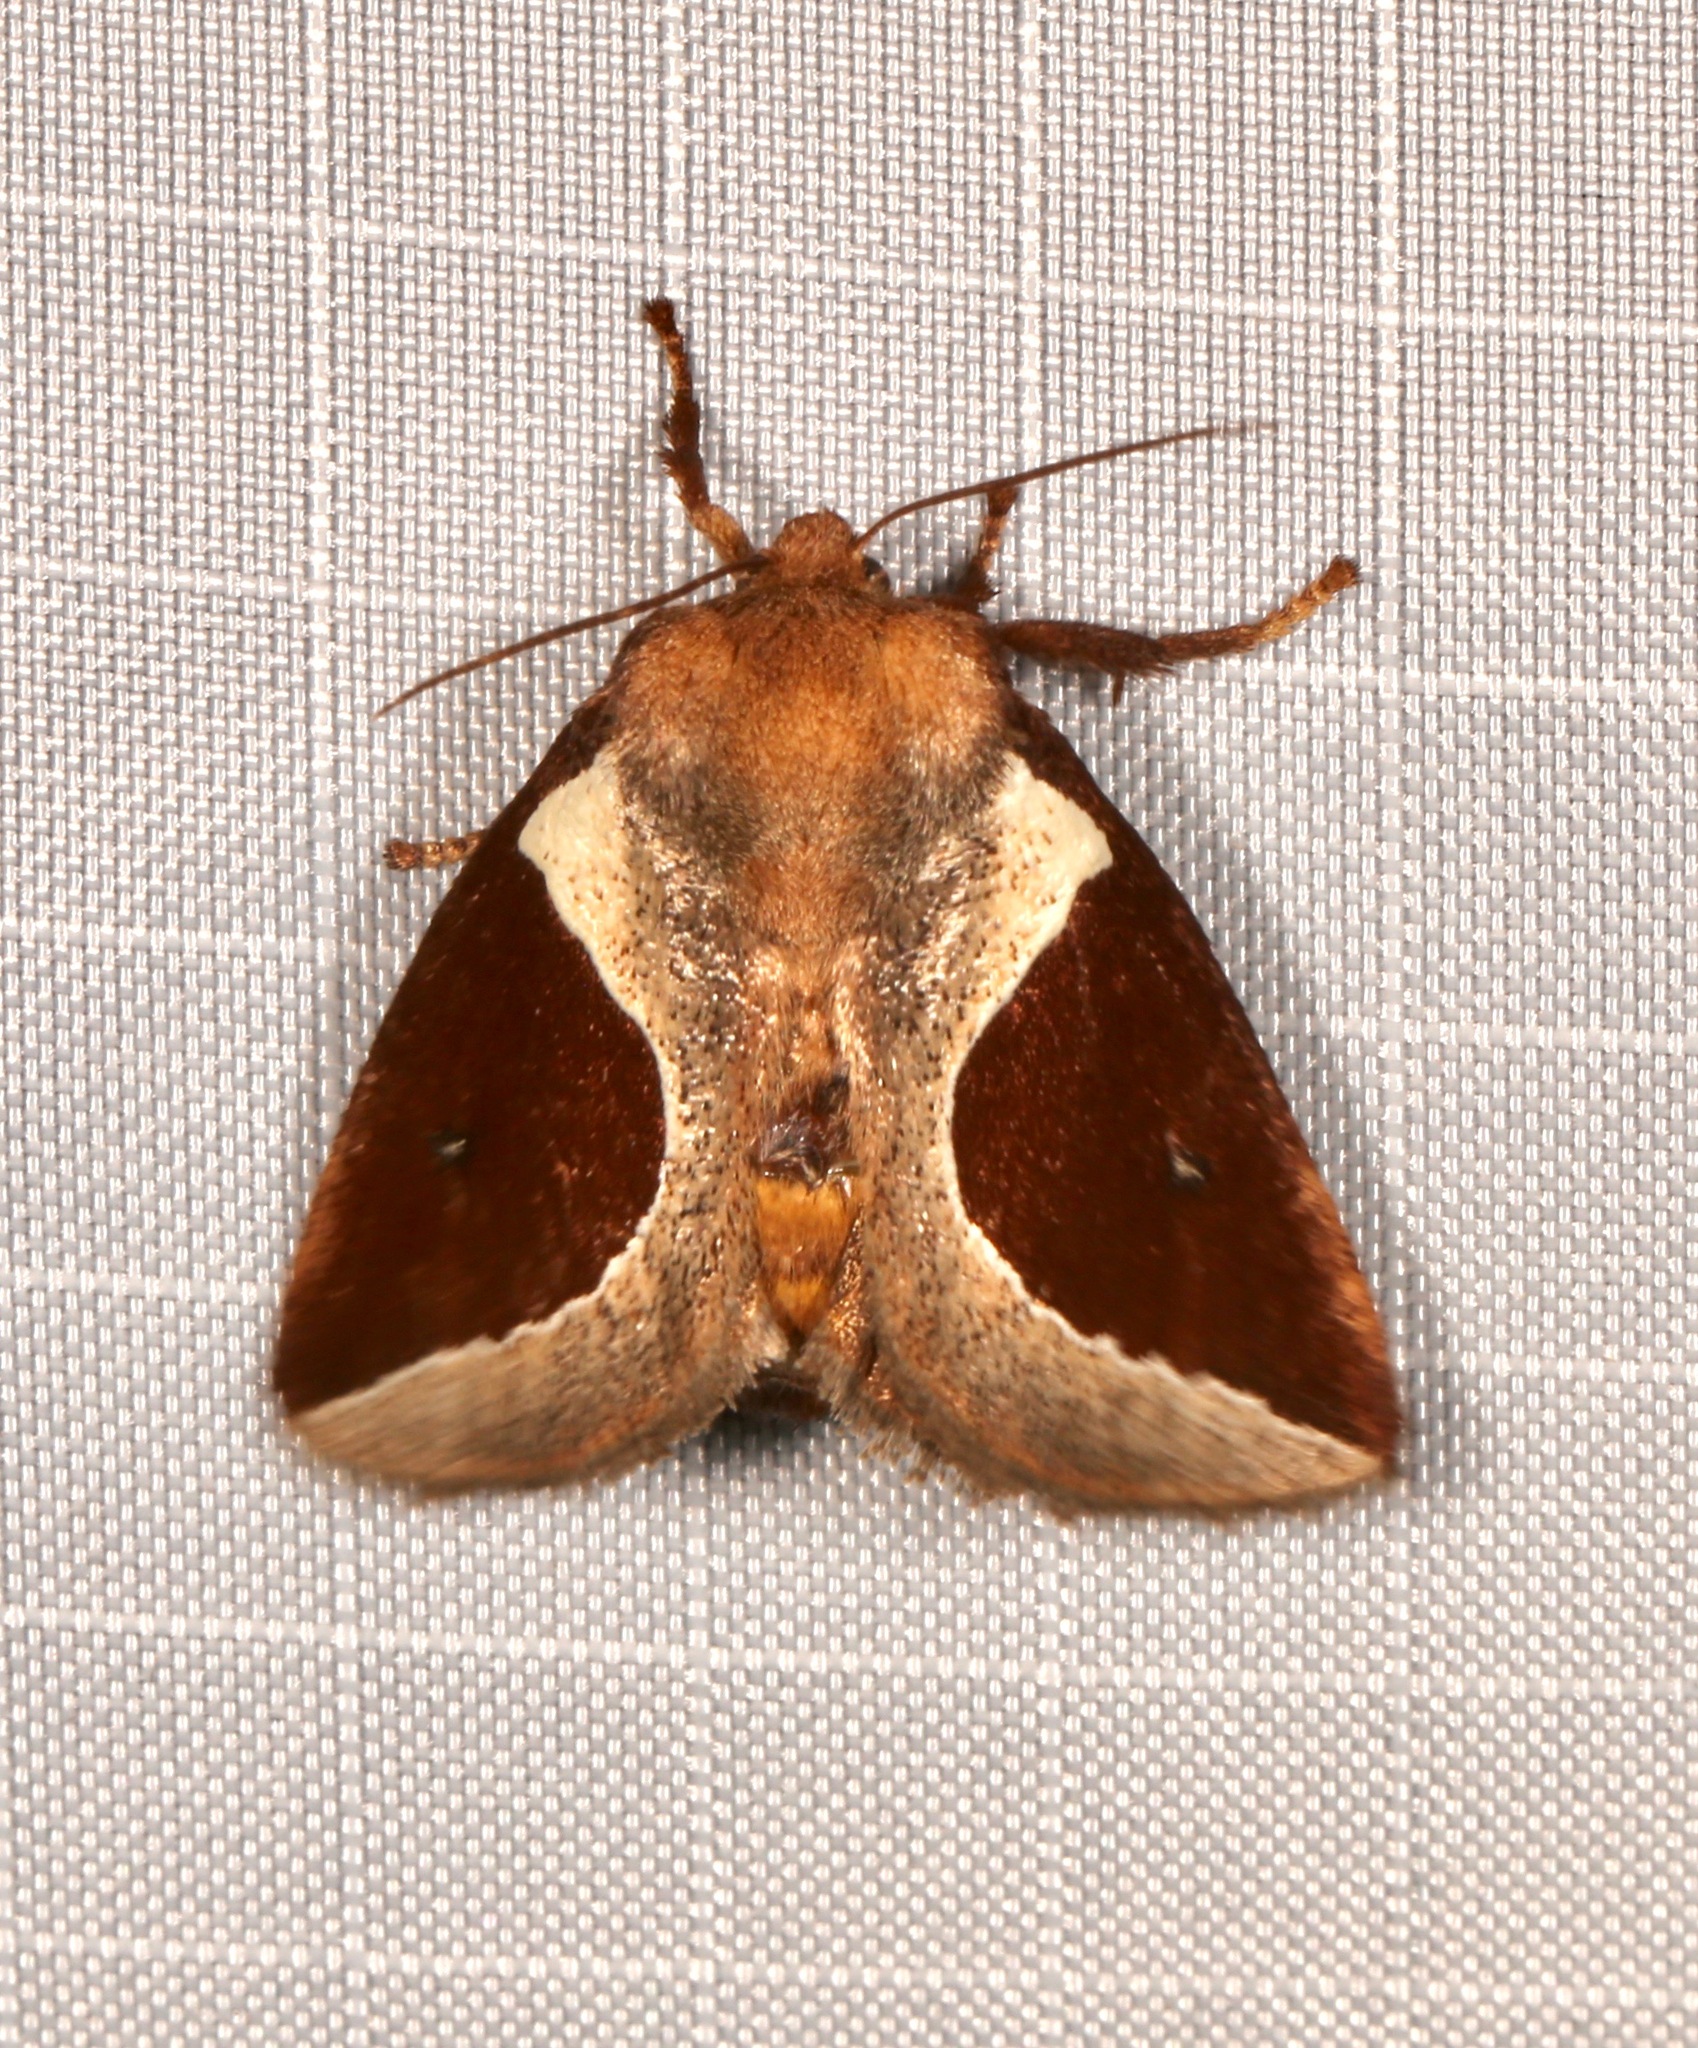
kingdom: Animalia
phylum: Arthropoda
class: Insecta
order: Lepidoptera
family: Limacodidae
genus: Prolimacodes
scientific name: Prolimacodes badia
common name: Skiff moth
